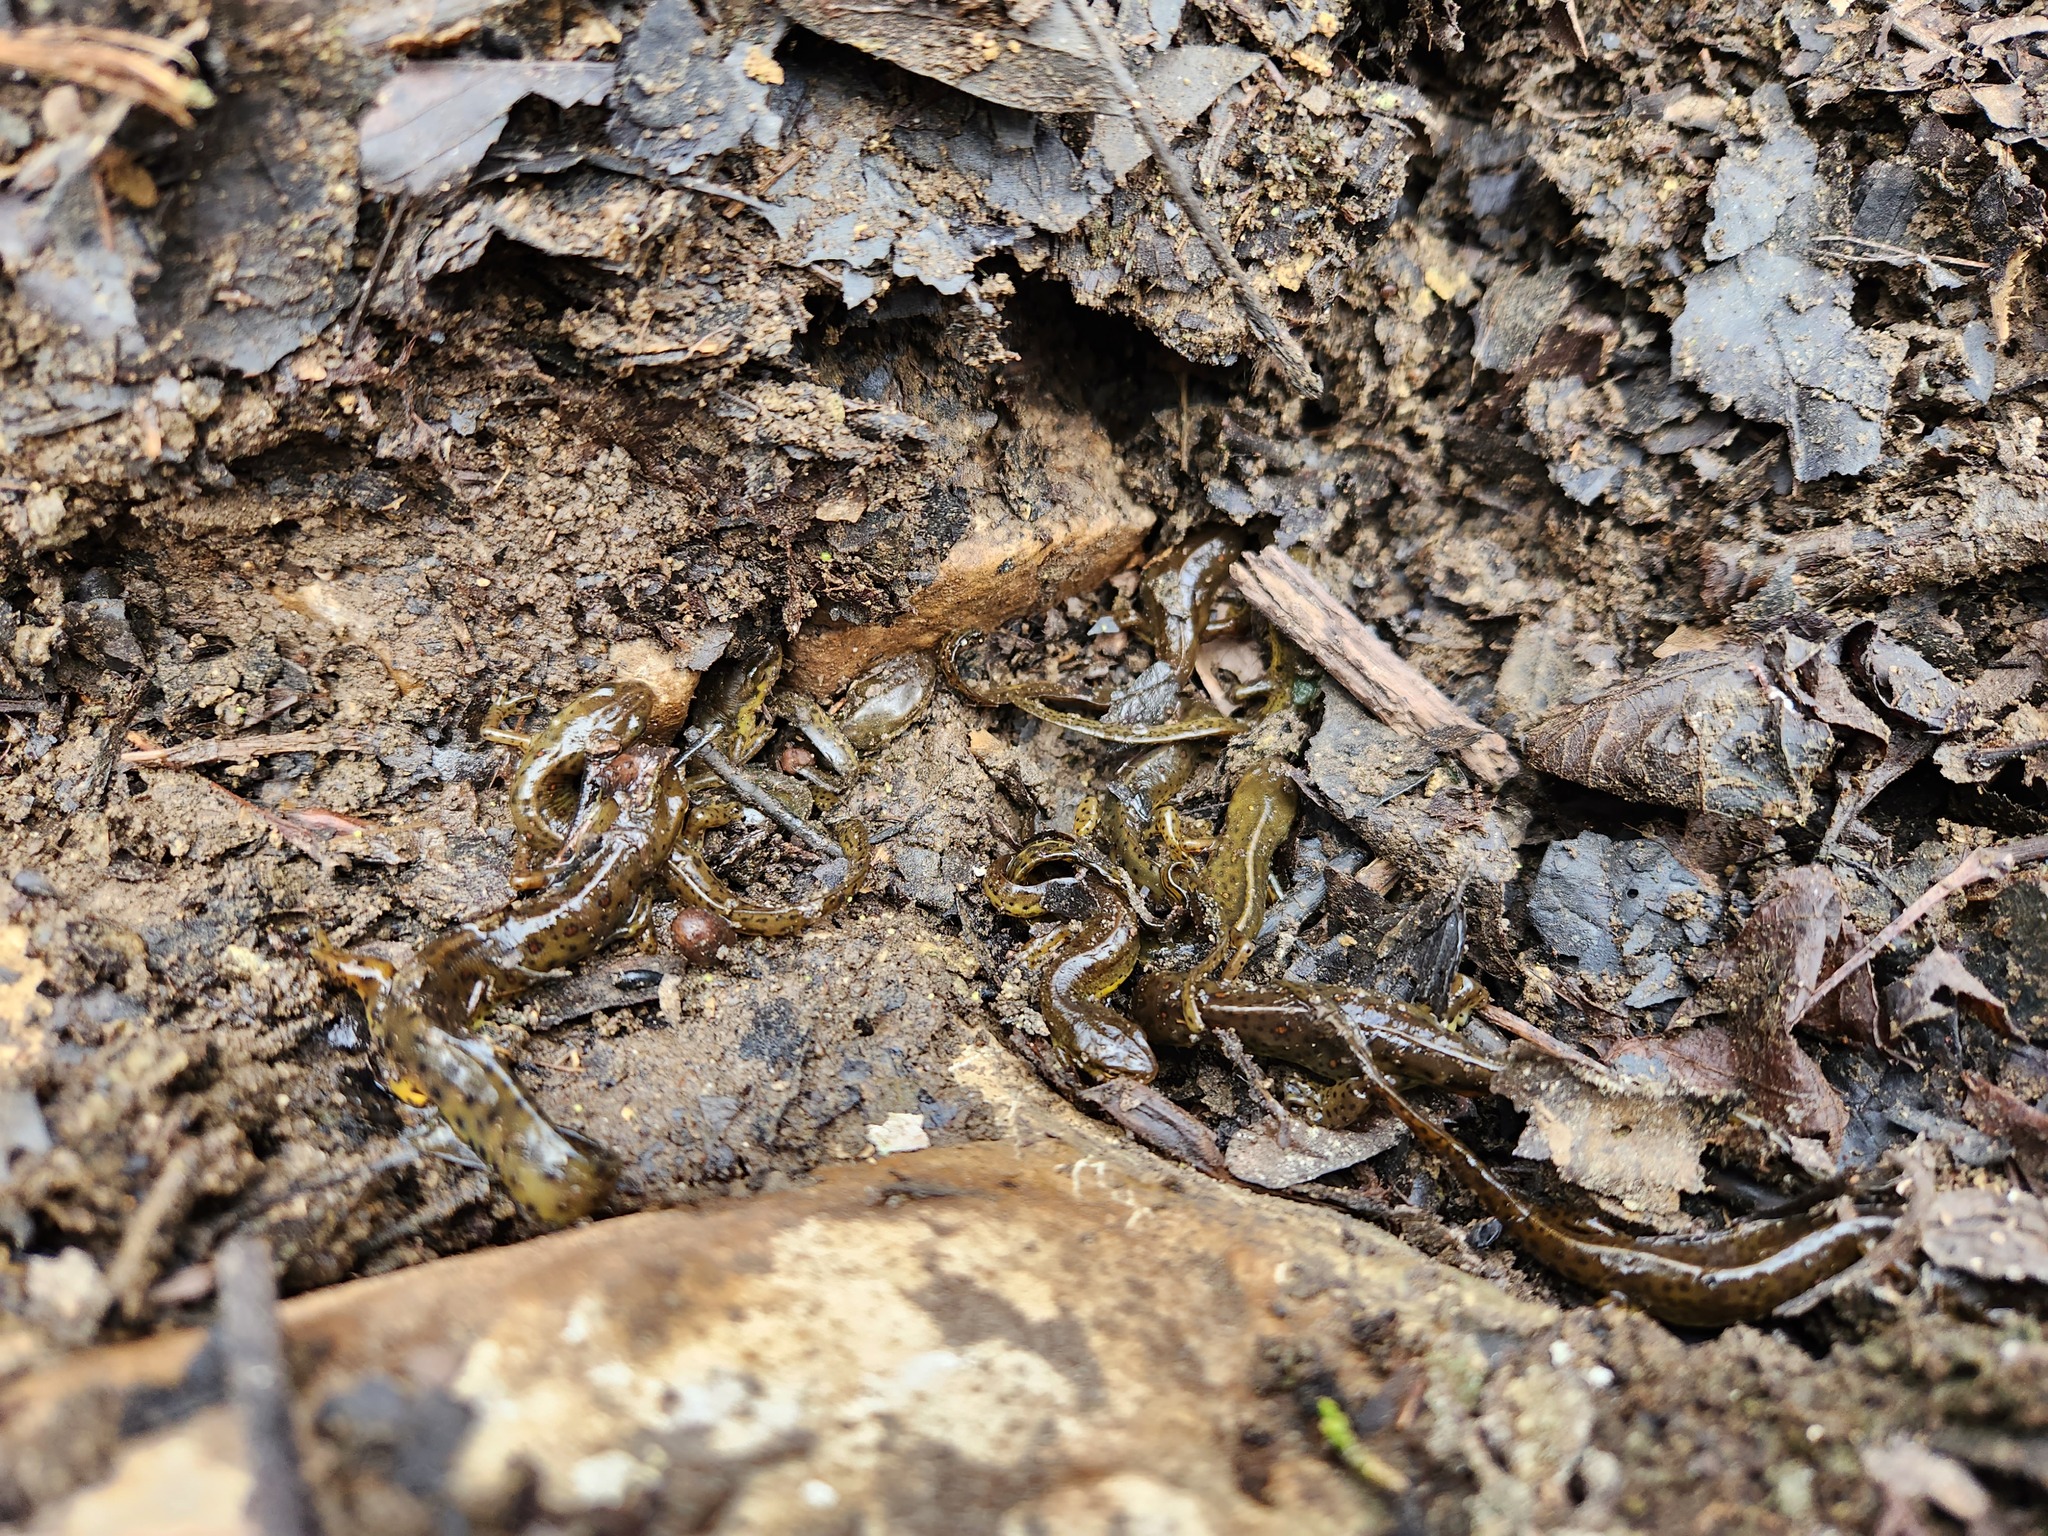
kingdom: Animalia
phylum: Chordata
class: Amphibia
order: Caudata
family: Salamandridae
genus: Notophthalmus
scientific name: Notophthalmus viridescens
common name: Eastern newt
